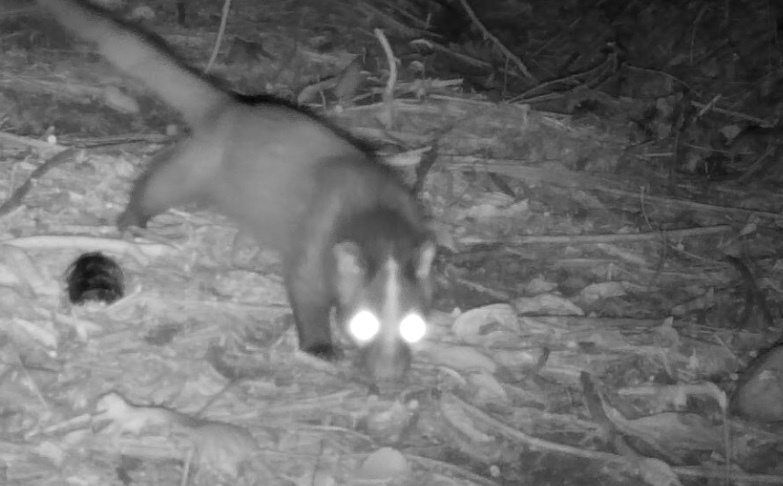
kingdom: Animalia
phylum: Chordata
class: Mammalia
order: Carnivora
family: Viverridae
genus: Paguma
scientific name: Paguma larvata
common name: Masked palm civet
